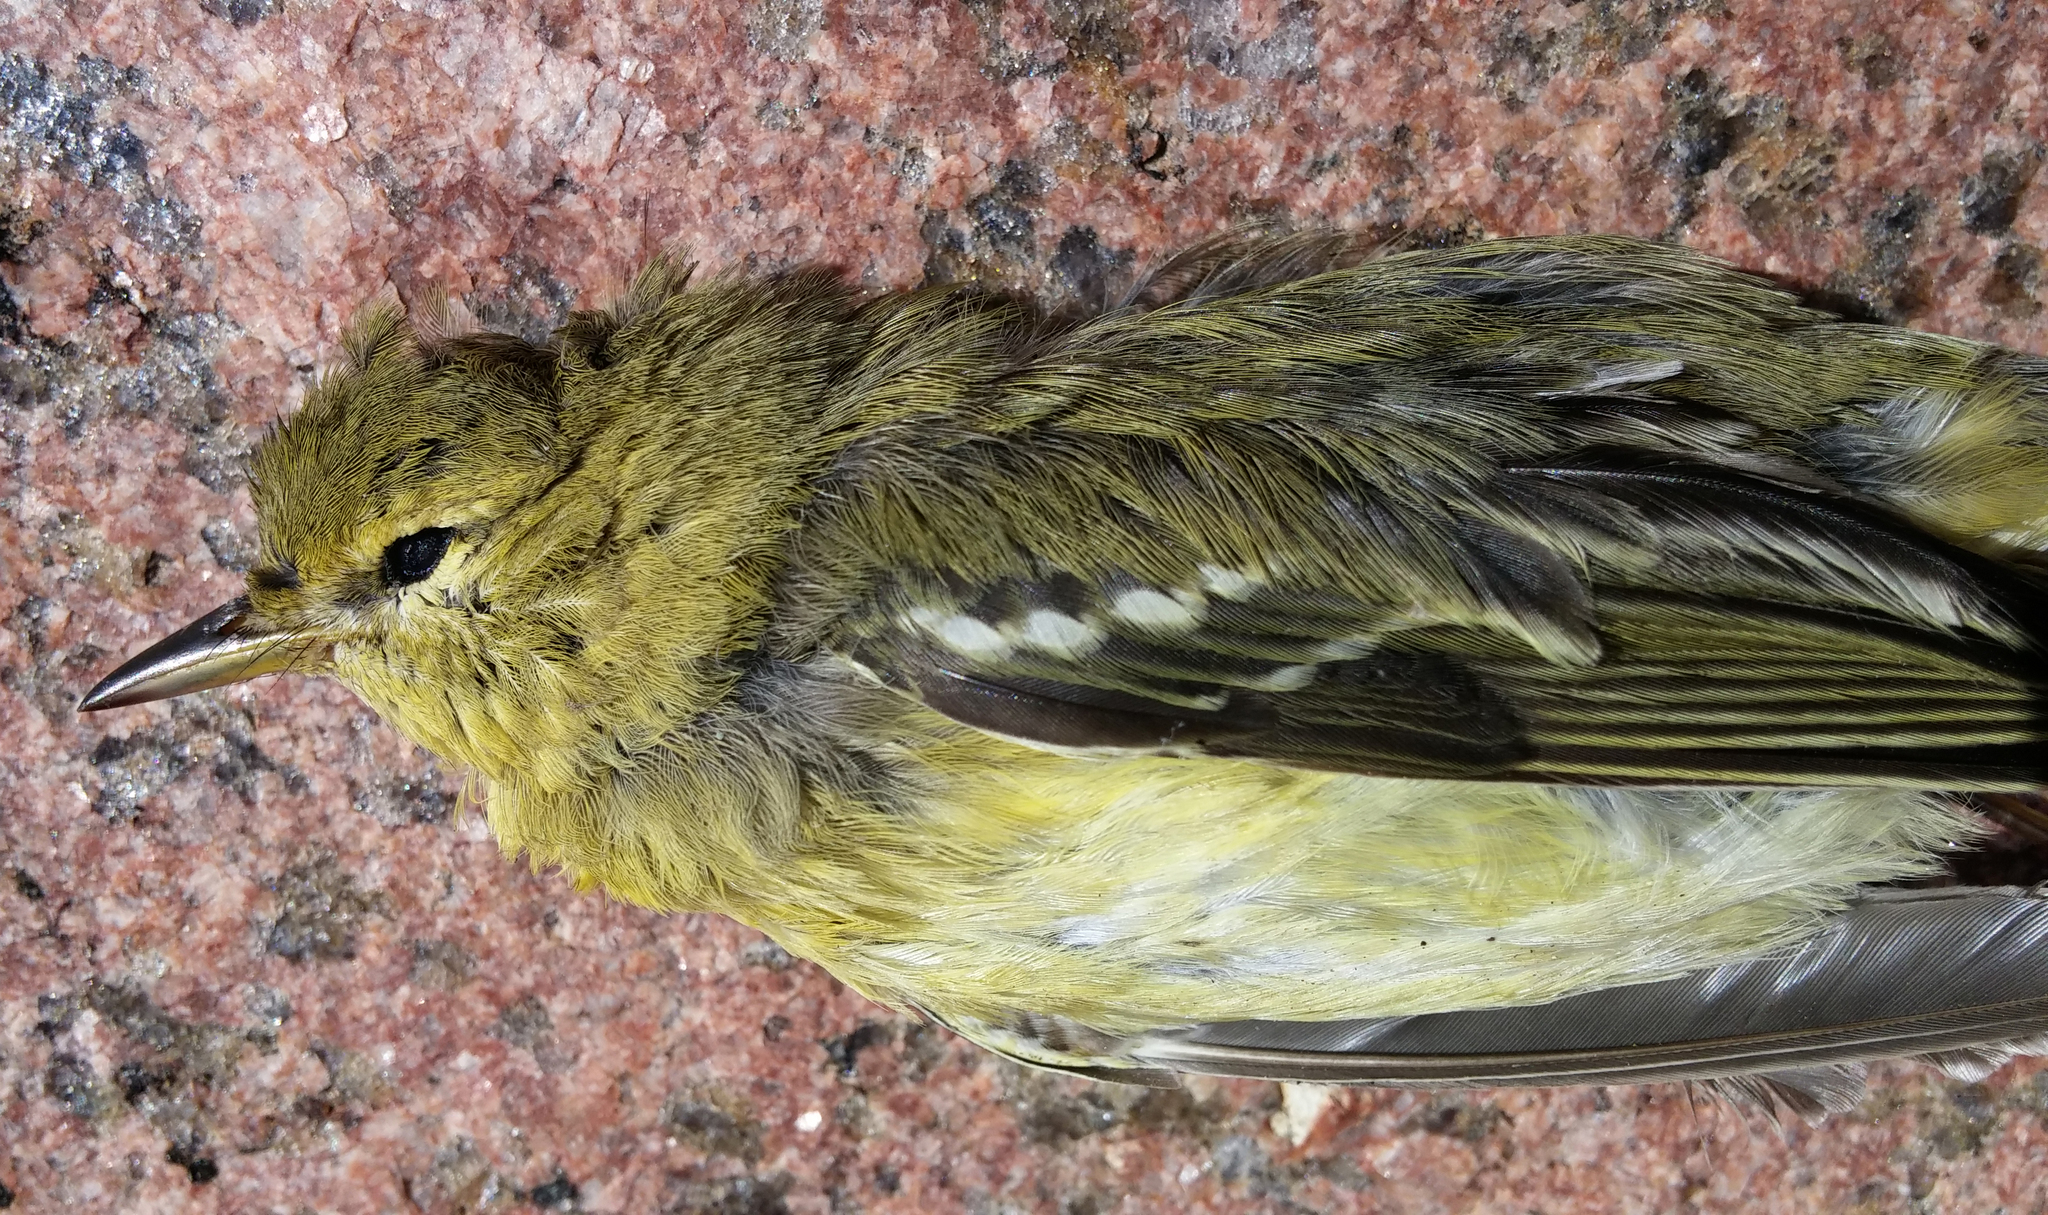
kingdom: Animalia
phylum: Chordata
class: Aves
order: Passeriformes
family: Parulidae
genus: Setophaga
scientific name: Setophaga striata
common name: Blackpoll warbler
